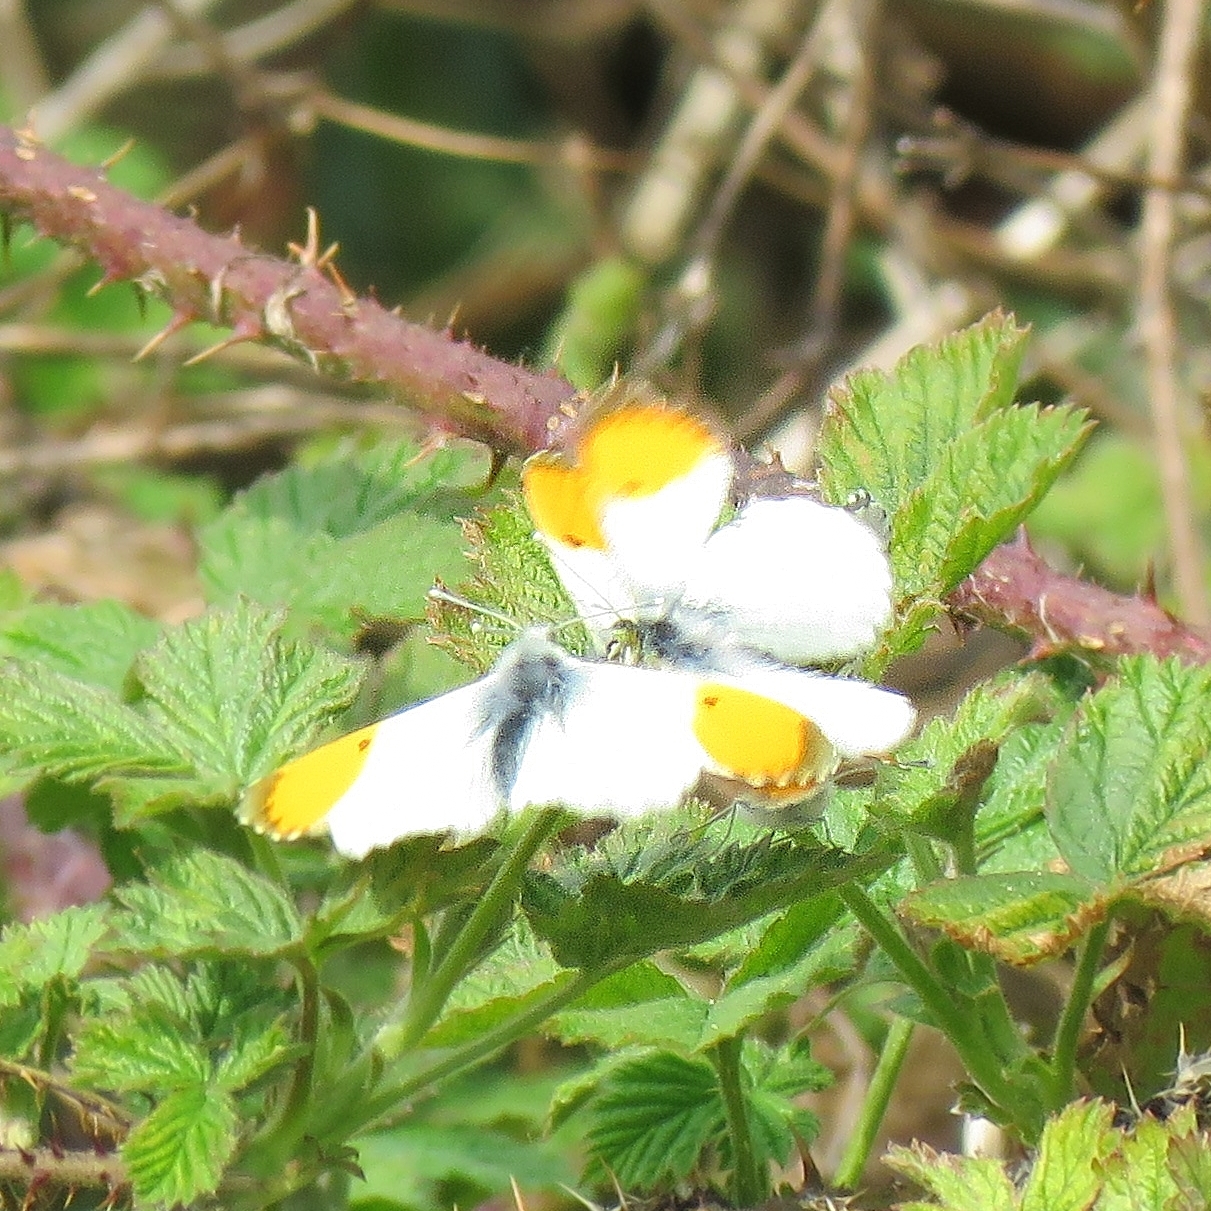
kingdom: Animalia
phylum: Arthropoda
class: Insecta
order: Lepidoptera
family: Pieridae
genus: Anthocharis
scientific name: Anthocharis cardamines
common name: Orange-tip
